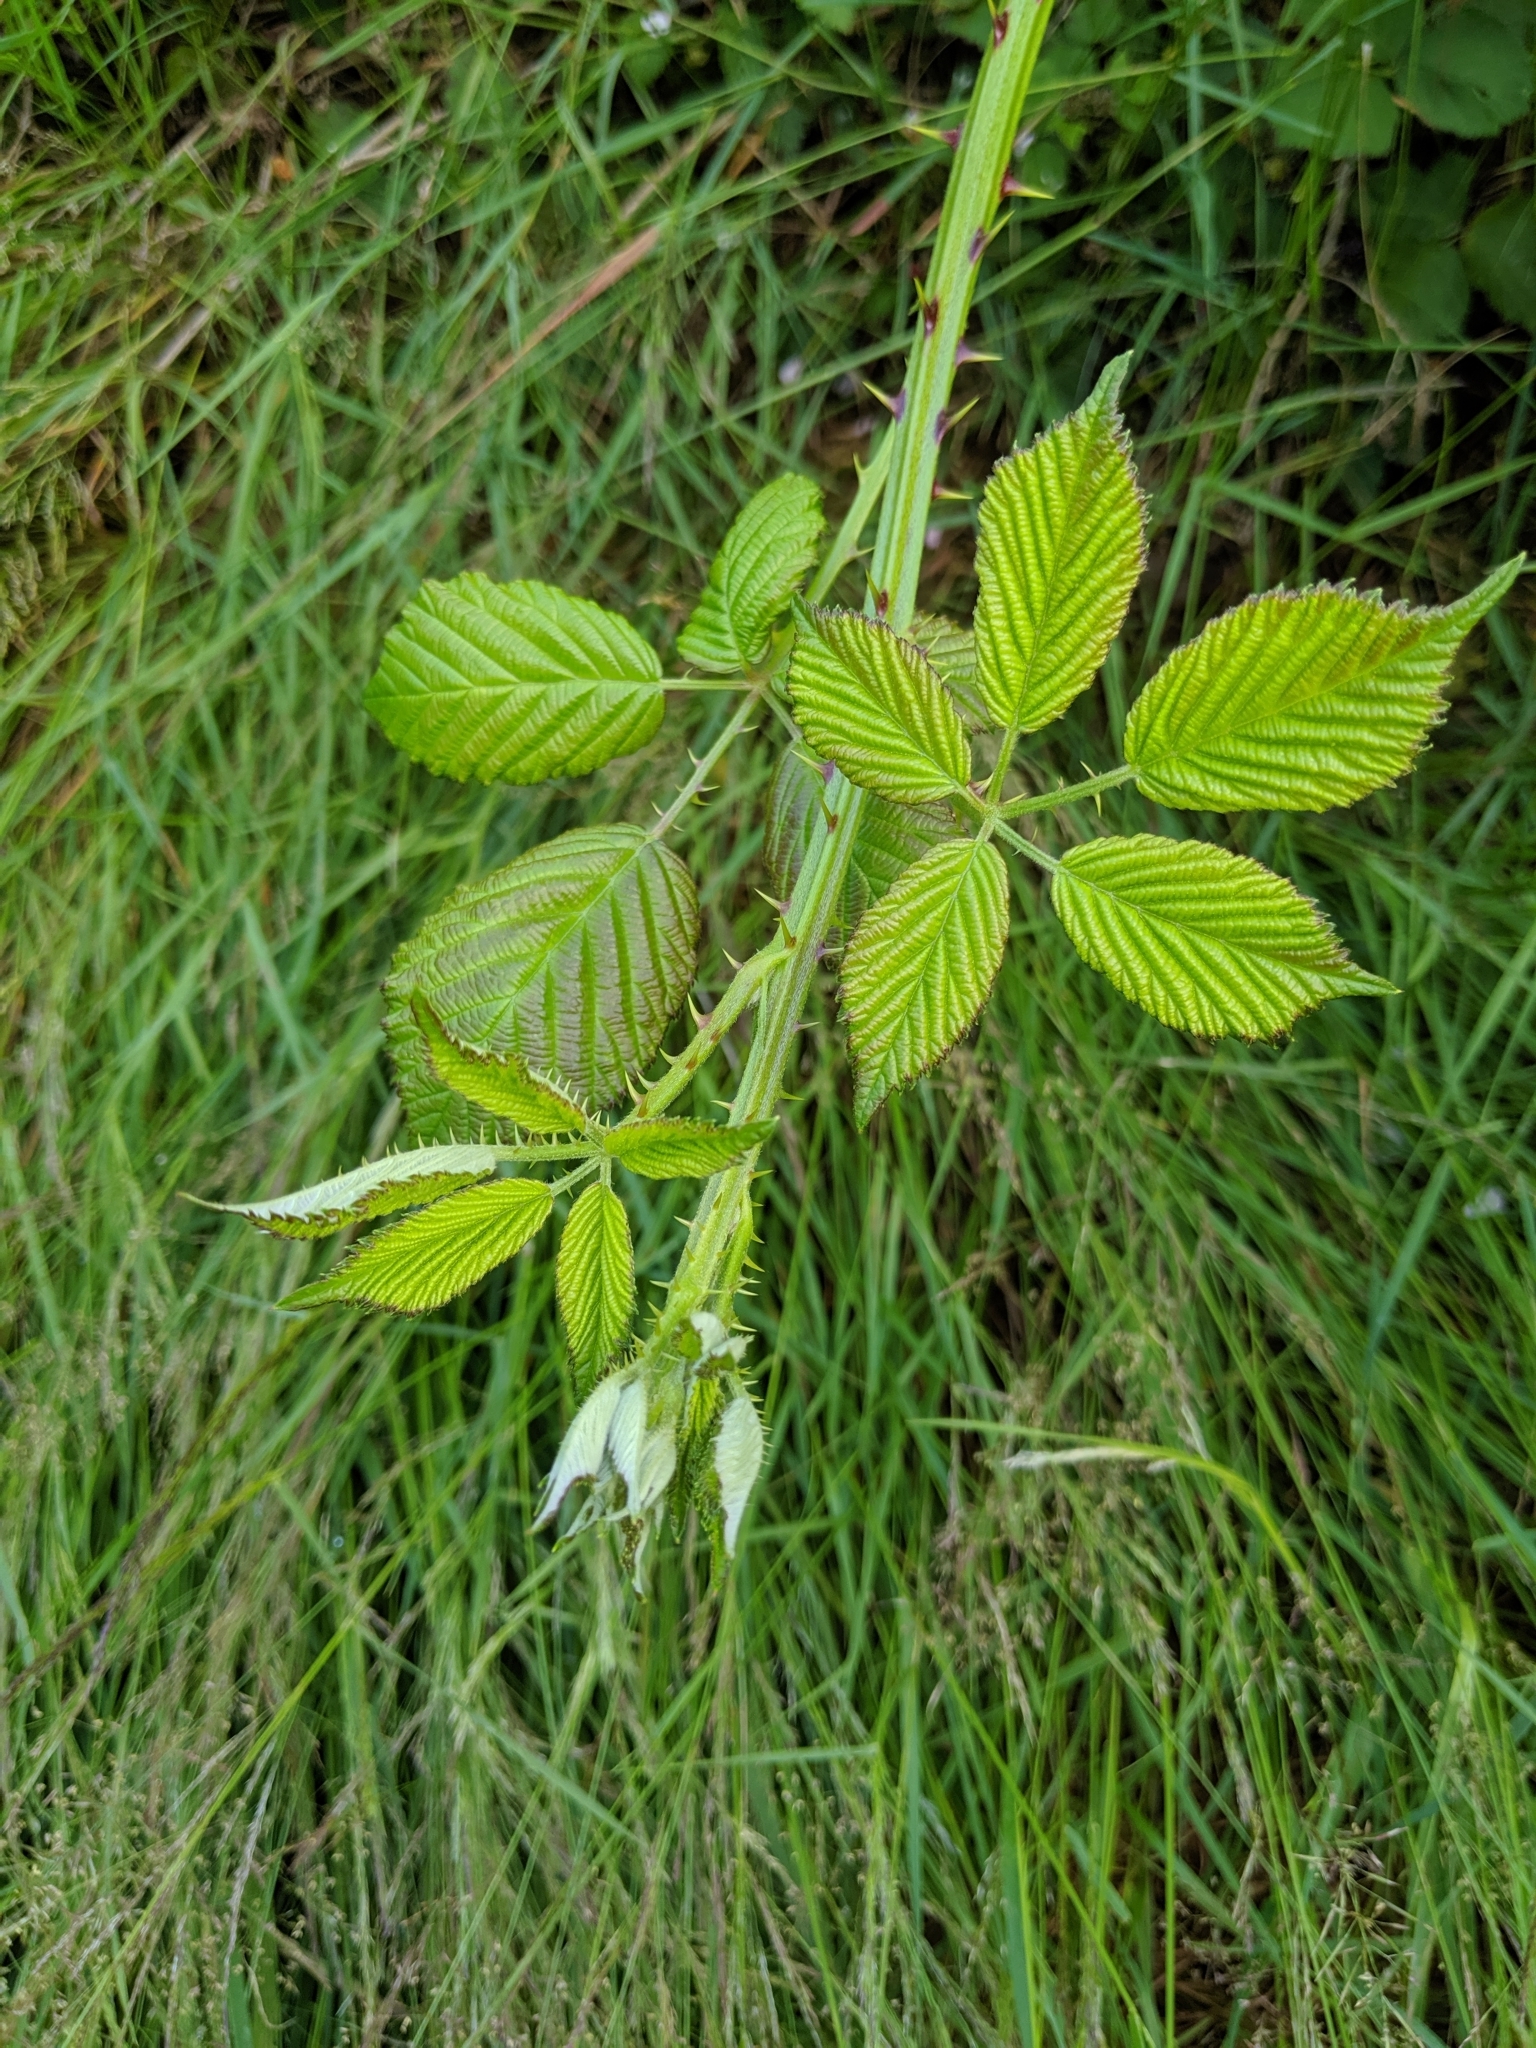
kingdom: Plantae
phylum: Tracheophyta
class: Magnoliopsida
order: Rosales
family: Rosaceae
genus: Rubus
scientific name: Rubus armeniacus
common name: Himalayan blackberry
